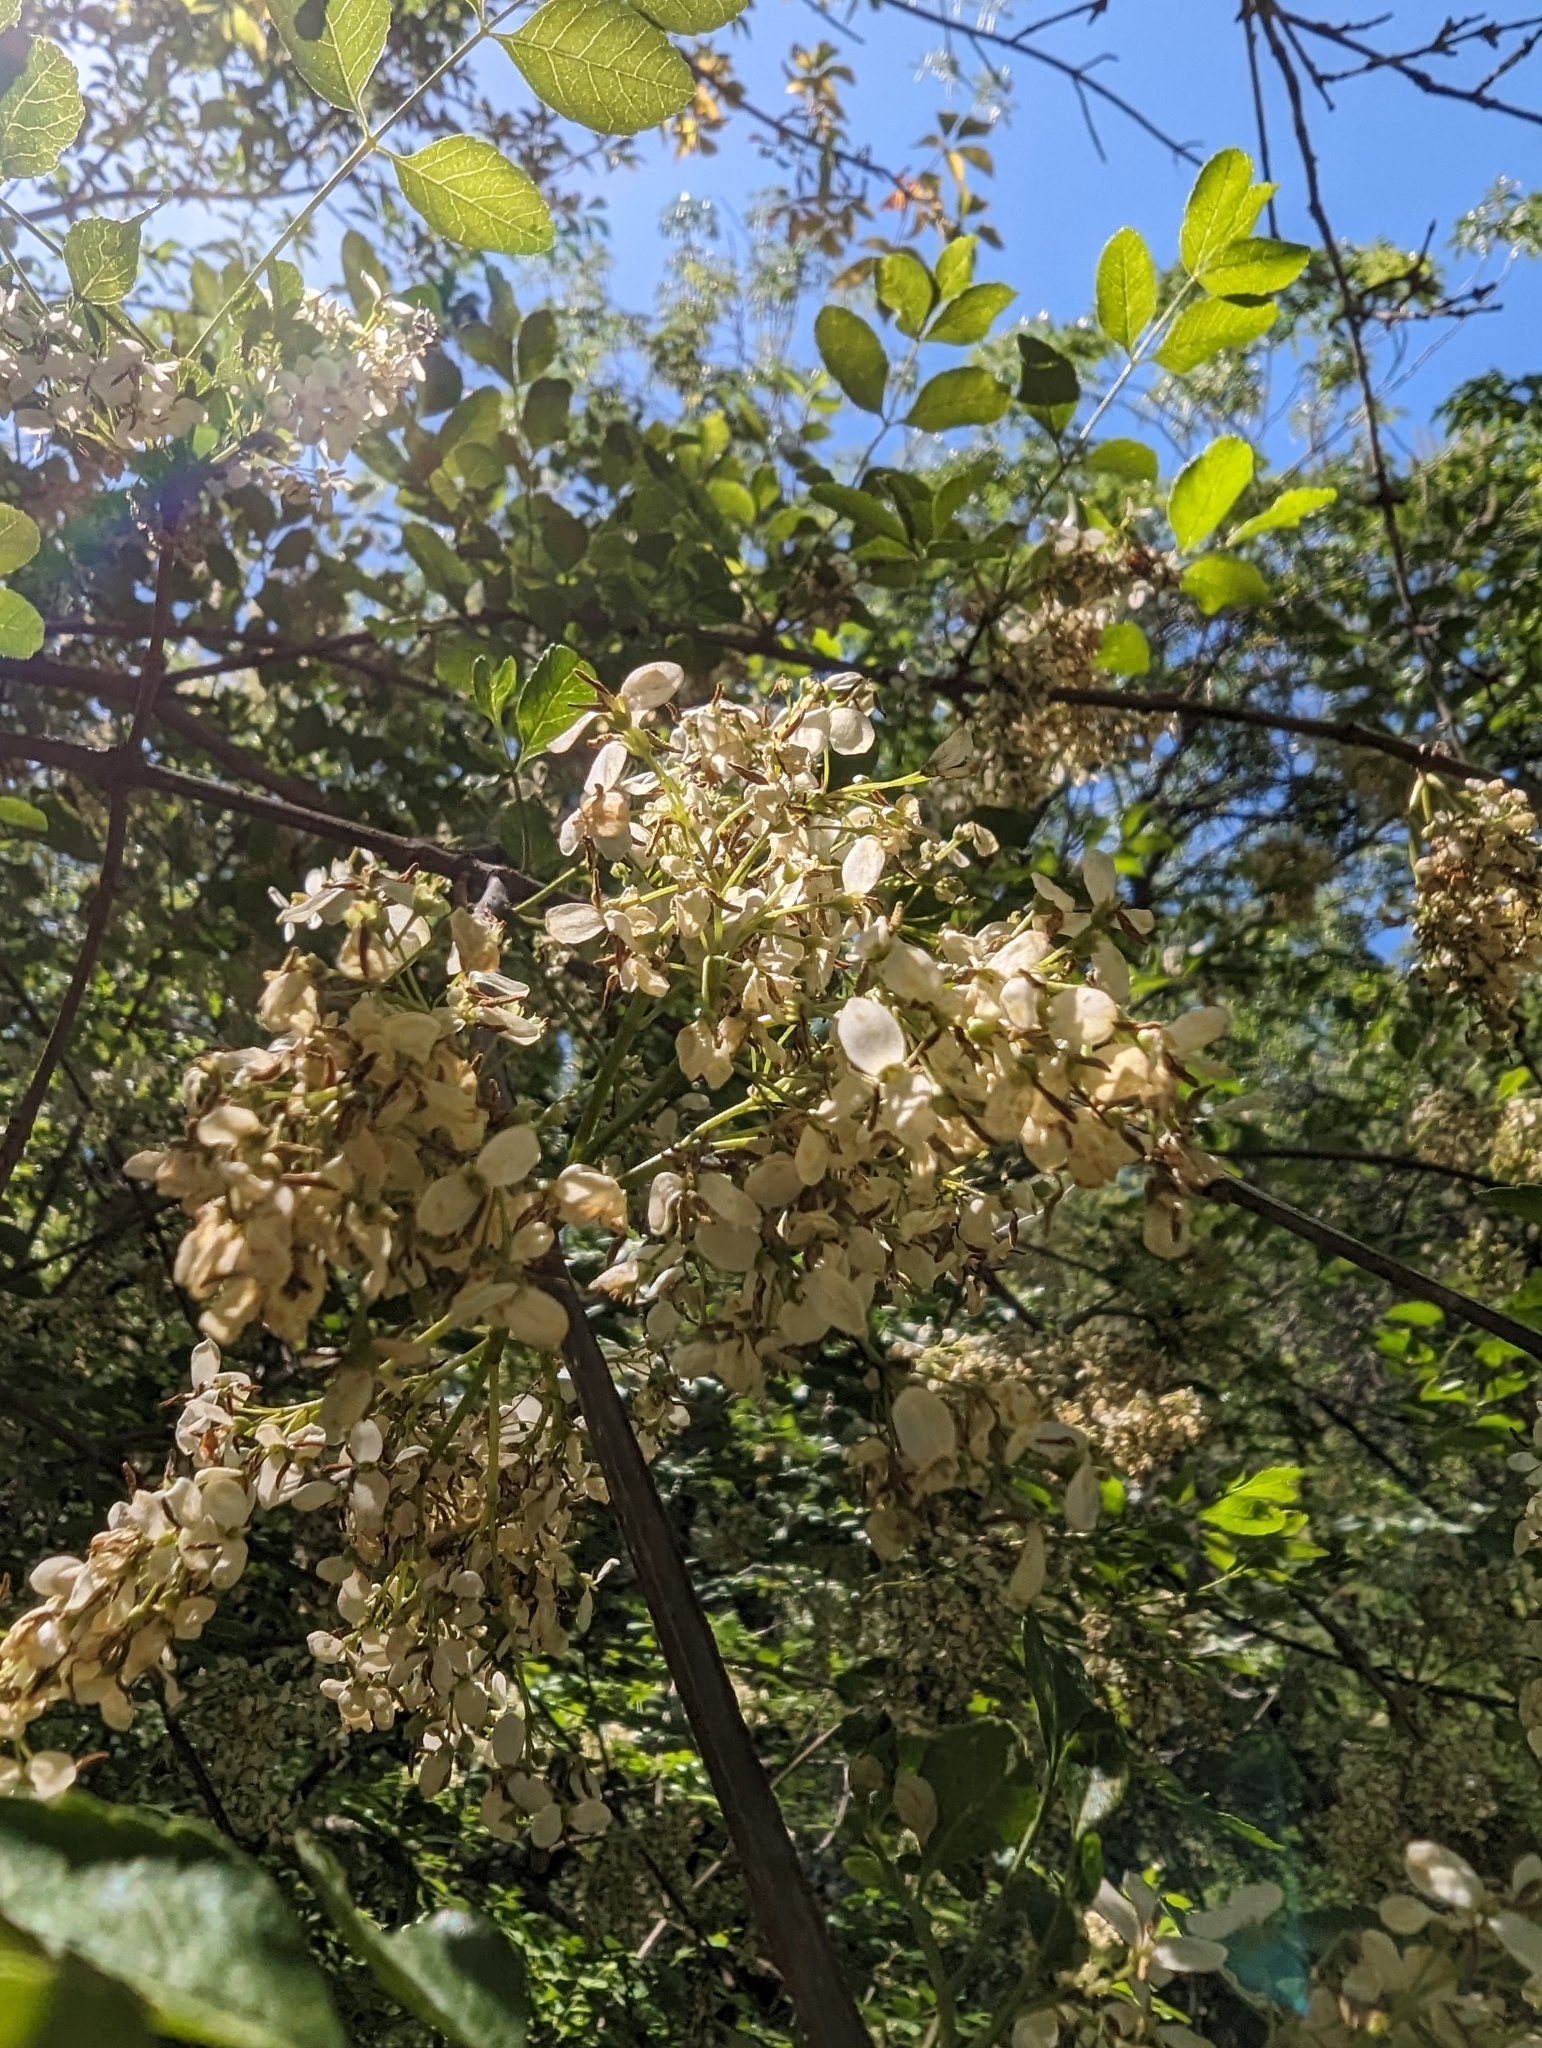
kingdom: Plantae
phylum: Tracheophyta
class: Magnoliopsida
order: Lamiales
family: Oleaceae
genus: Fraxinus
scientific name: Fraxinus dipetala
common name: California ash
